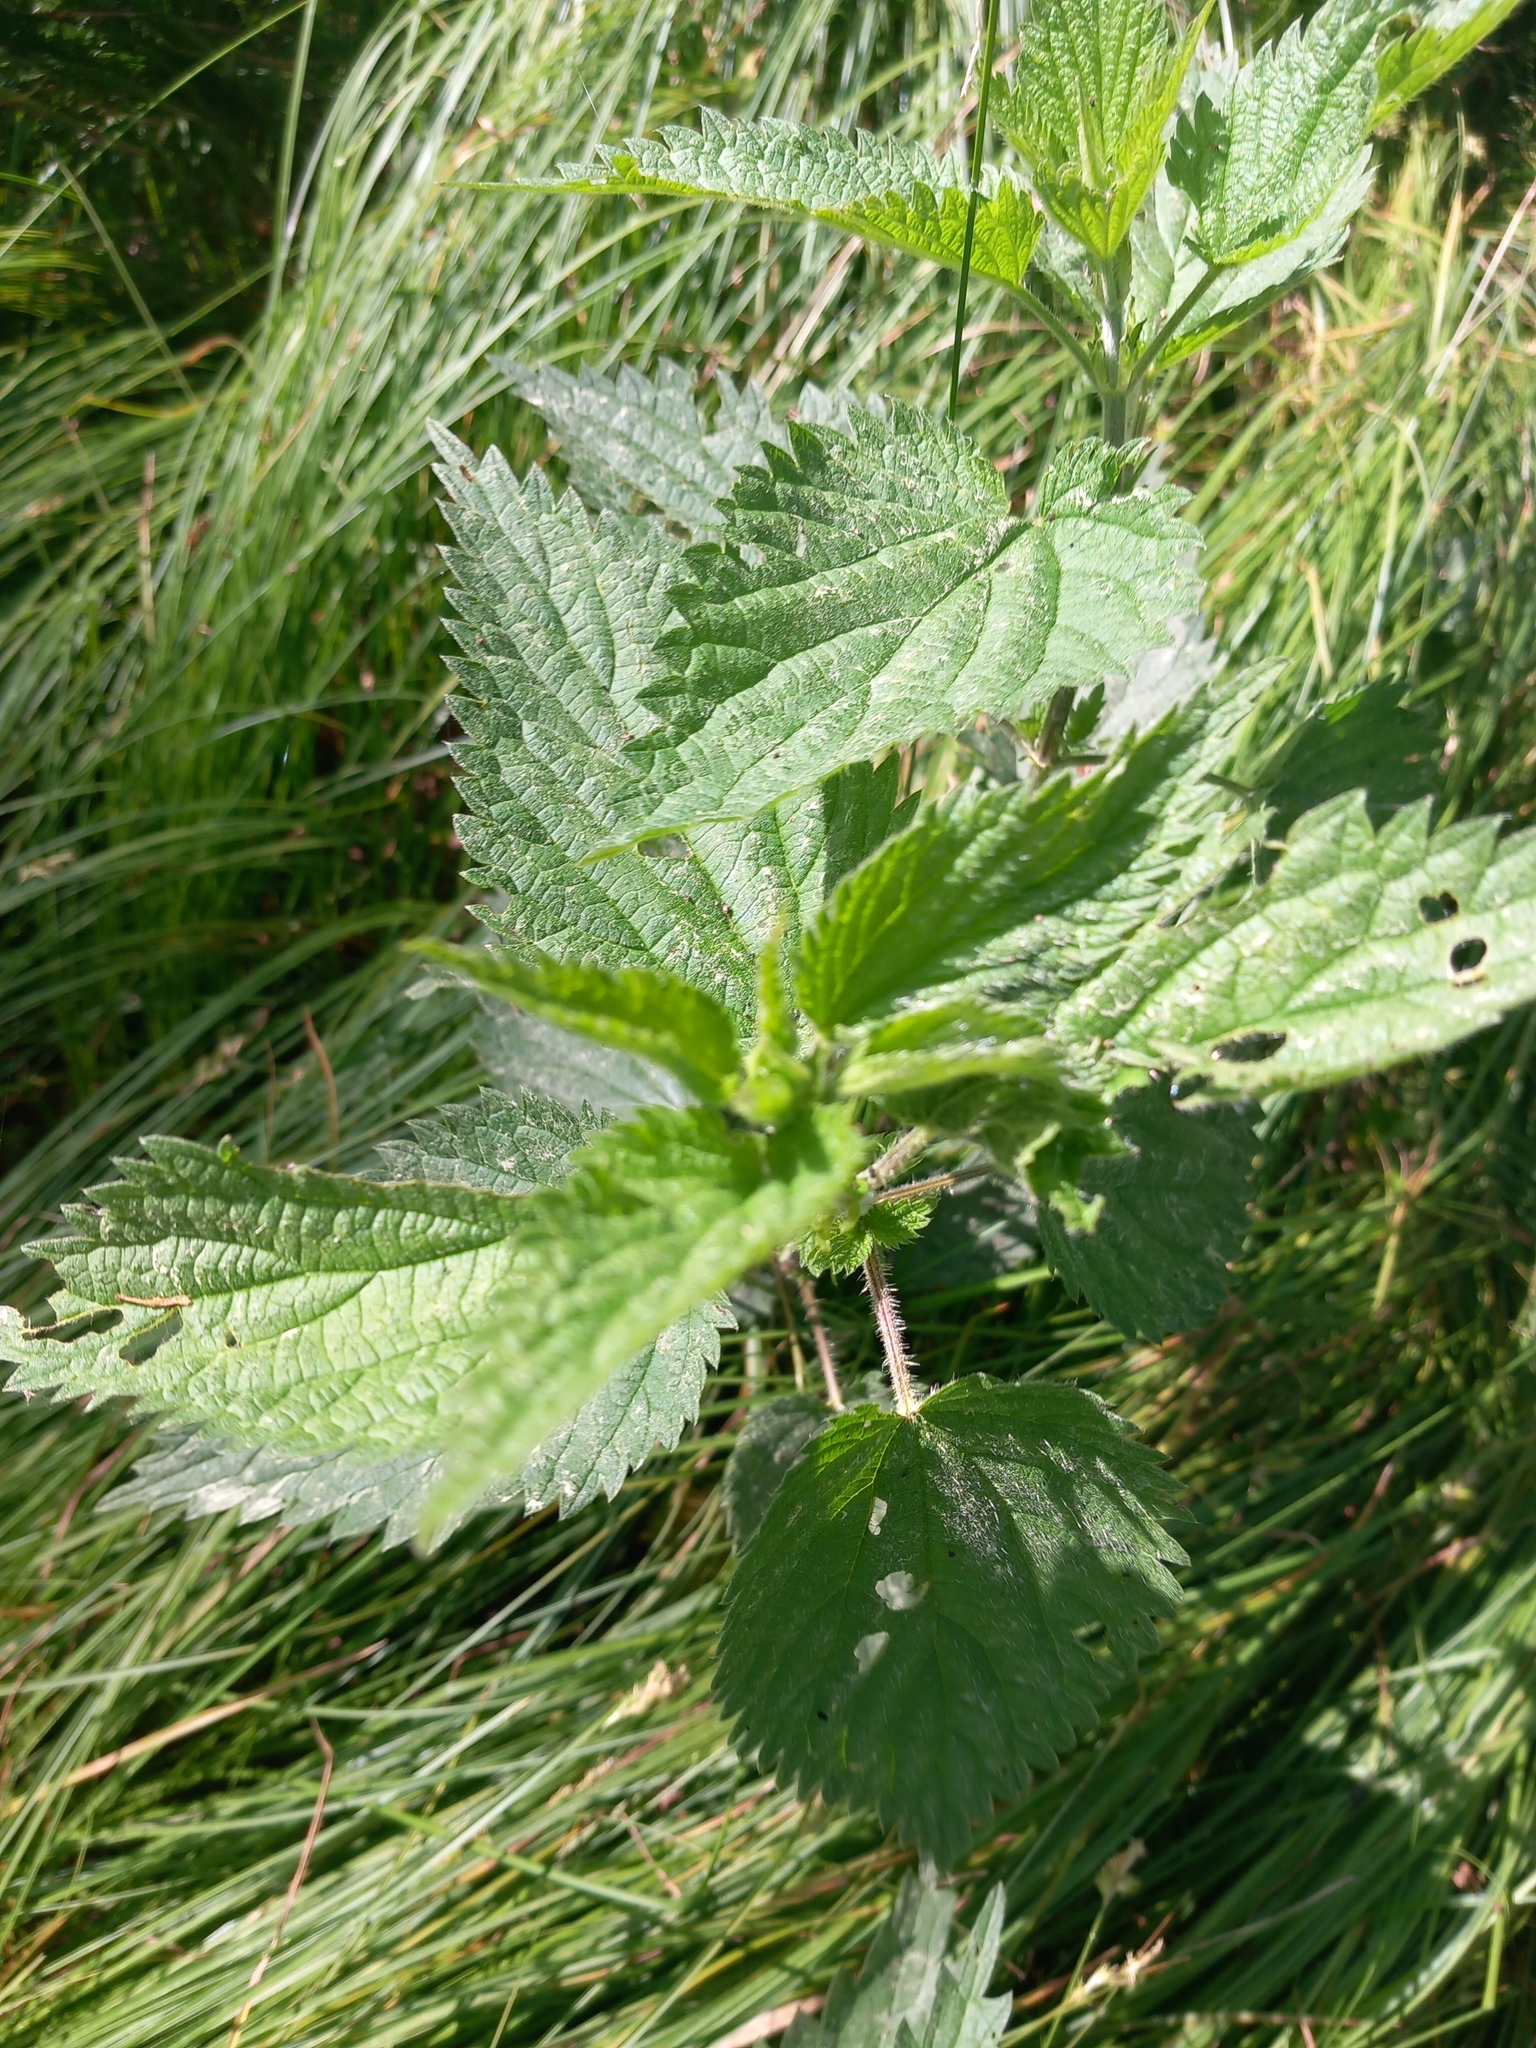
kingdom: Plantae
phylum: Tracheophyta
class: Magnoliopsida
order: Rosales
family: Urticaceae
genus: Urtica
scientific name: Urtica dioica
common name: Common nettle
